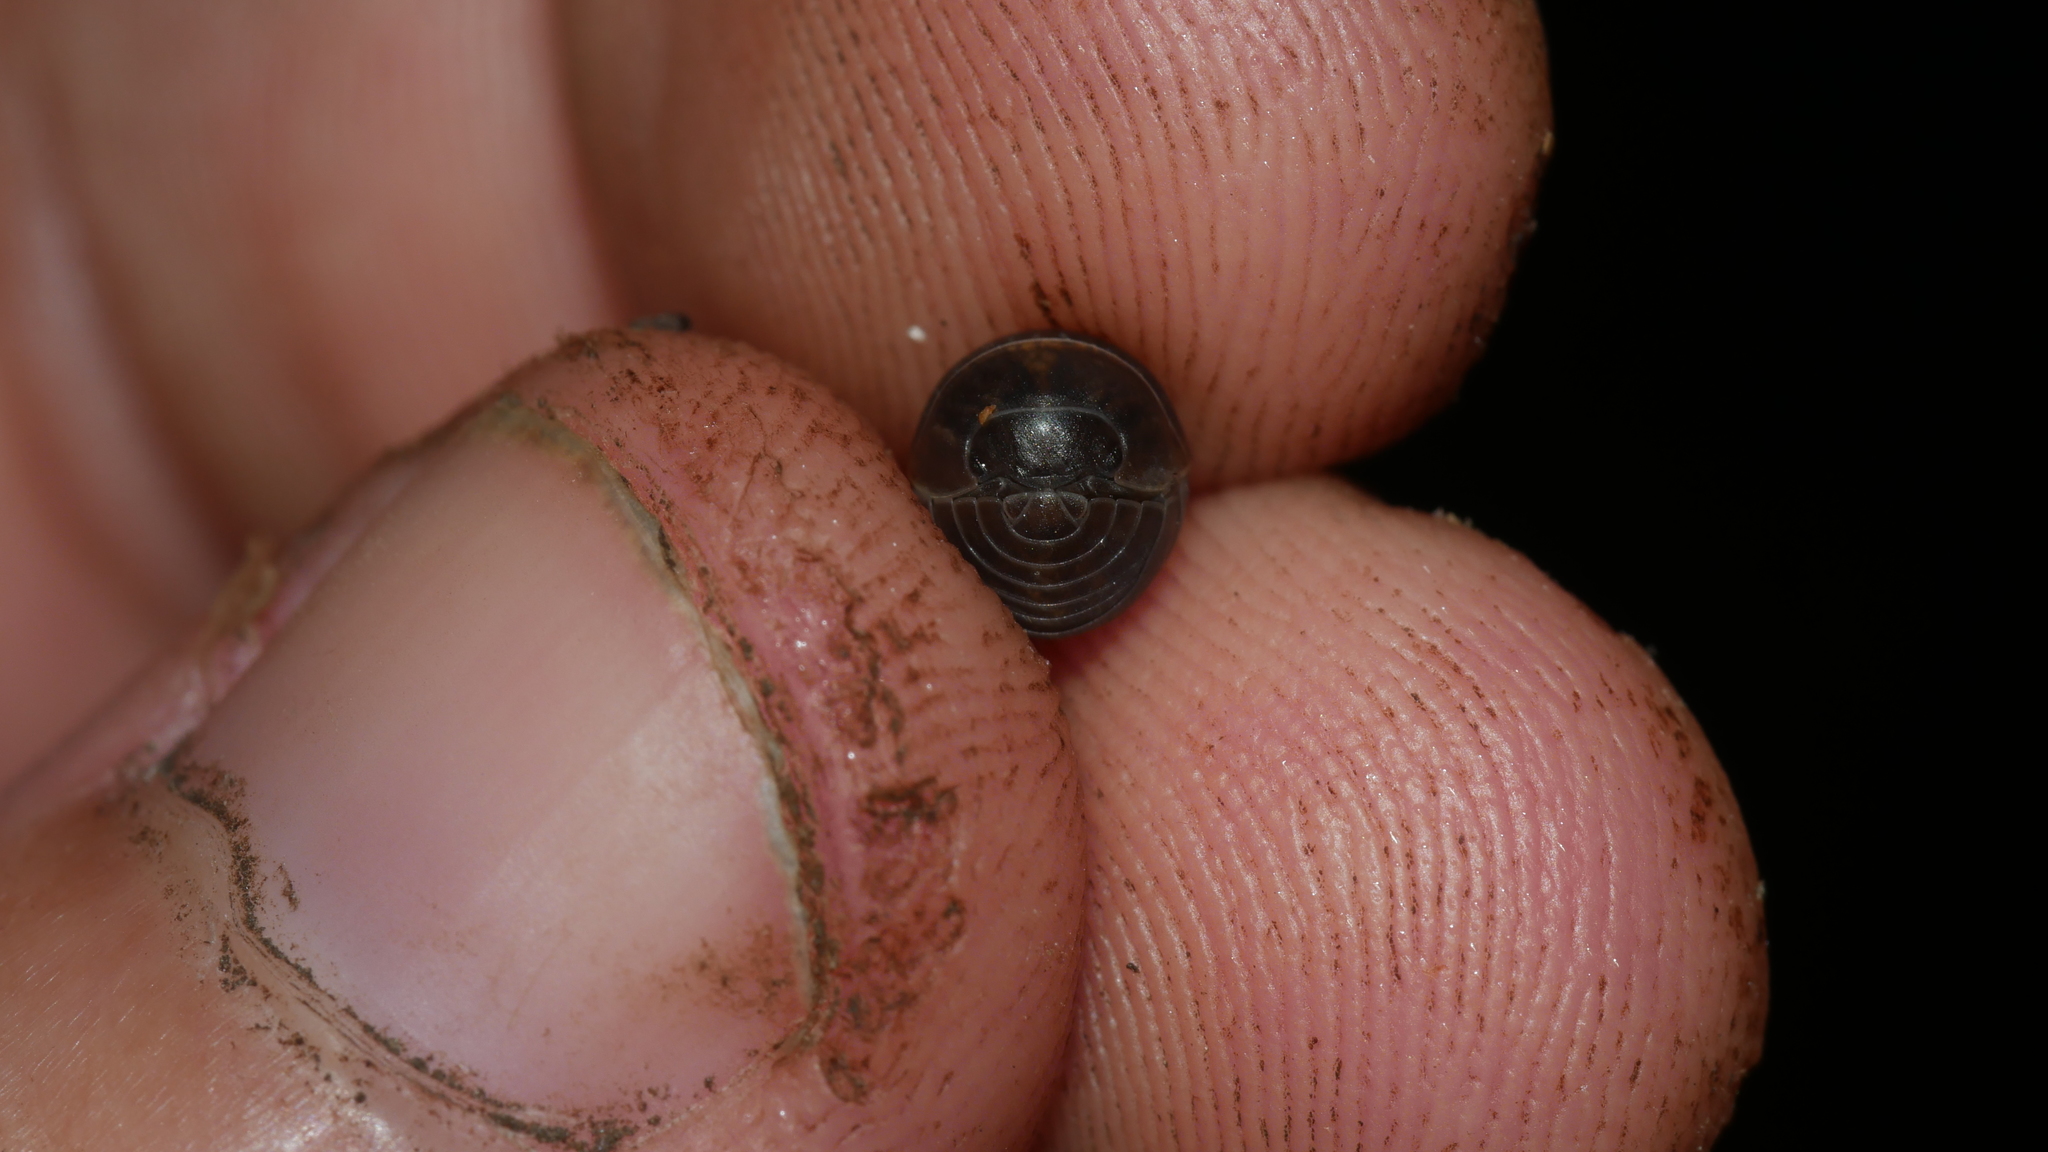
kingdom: Animalia
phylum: Arthropoda
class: Malacostraca
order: Isopoda
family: Armadillidiidae
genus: Armadillidium
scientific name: Armadillidium vulgare
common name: Common pill woodlouse
